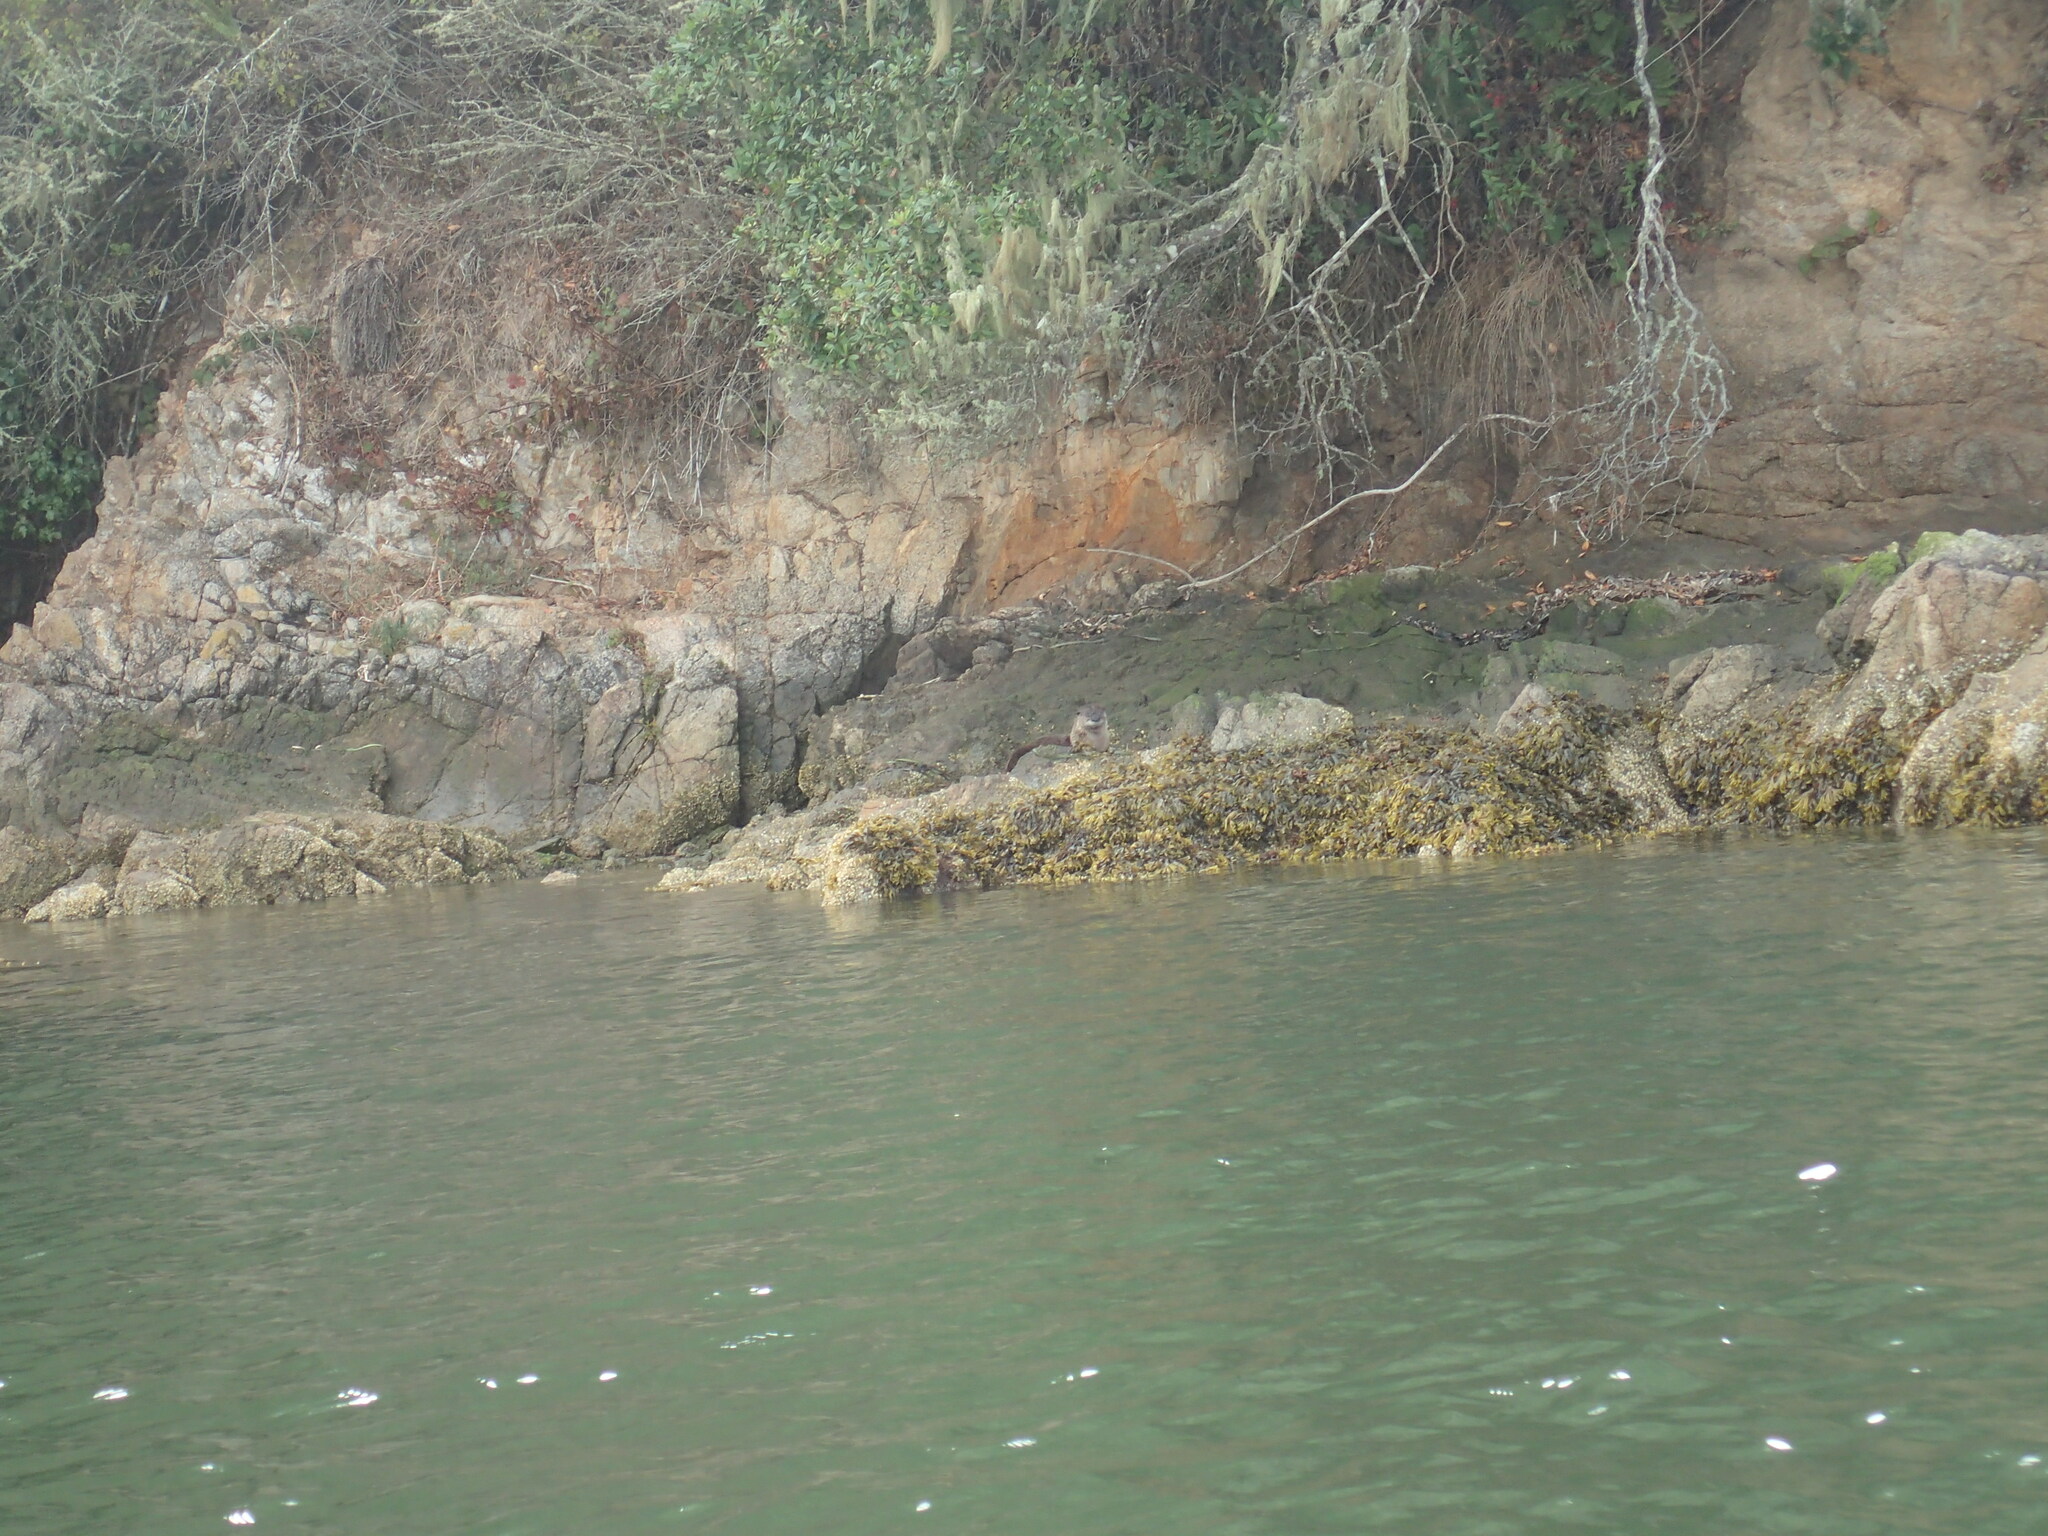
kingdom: Animalia
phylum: Chordata
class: Mammalia
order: Carnivora
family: Mustelidae
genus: Lontra
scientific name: Lontra canadensis
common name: North american river otter
